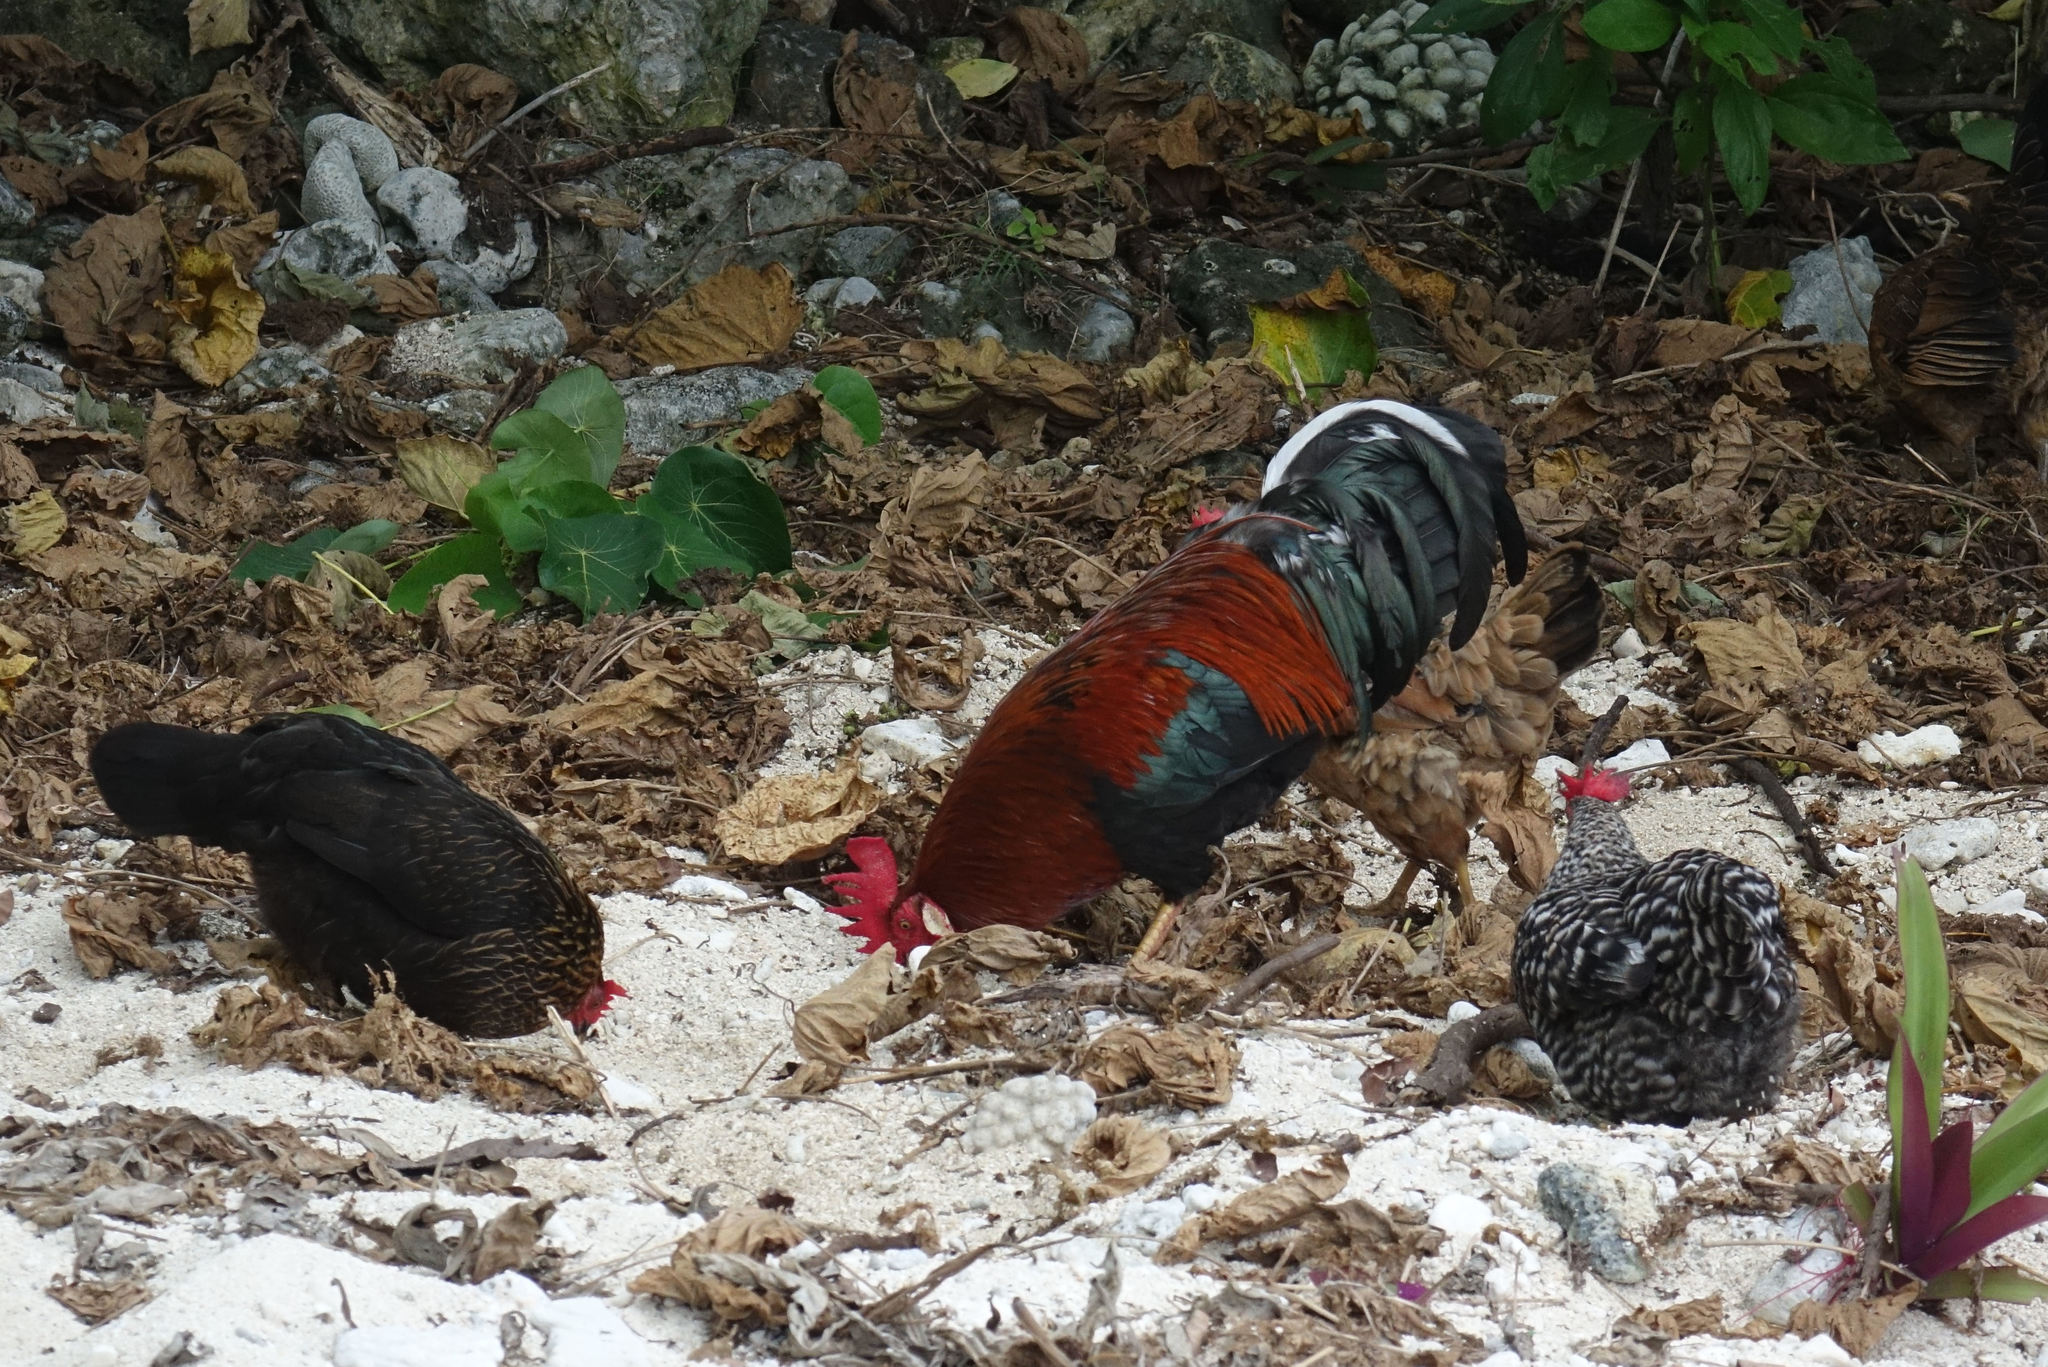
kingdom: Animalia
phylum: Chordata
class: Aves
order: Galliformes
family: Phasianidae
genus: Gallus
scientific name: Gallus gallus
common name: Red junglefowl
